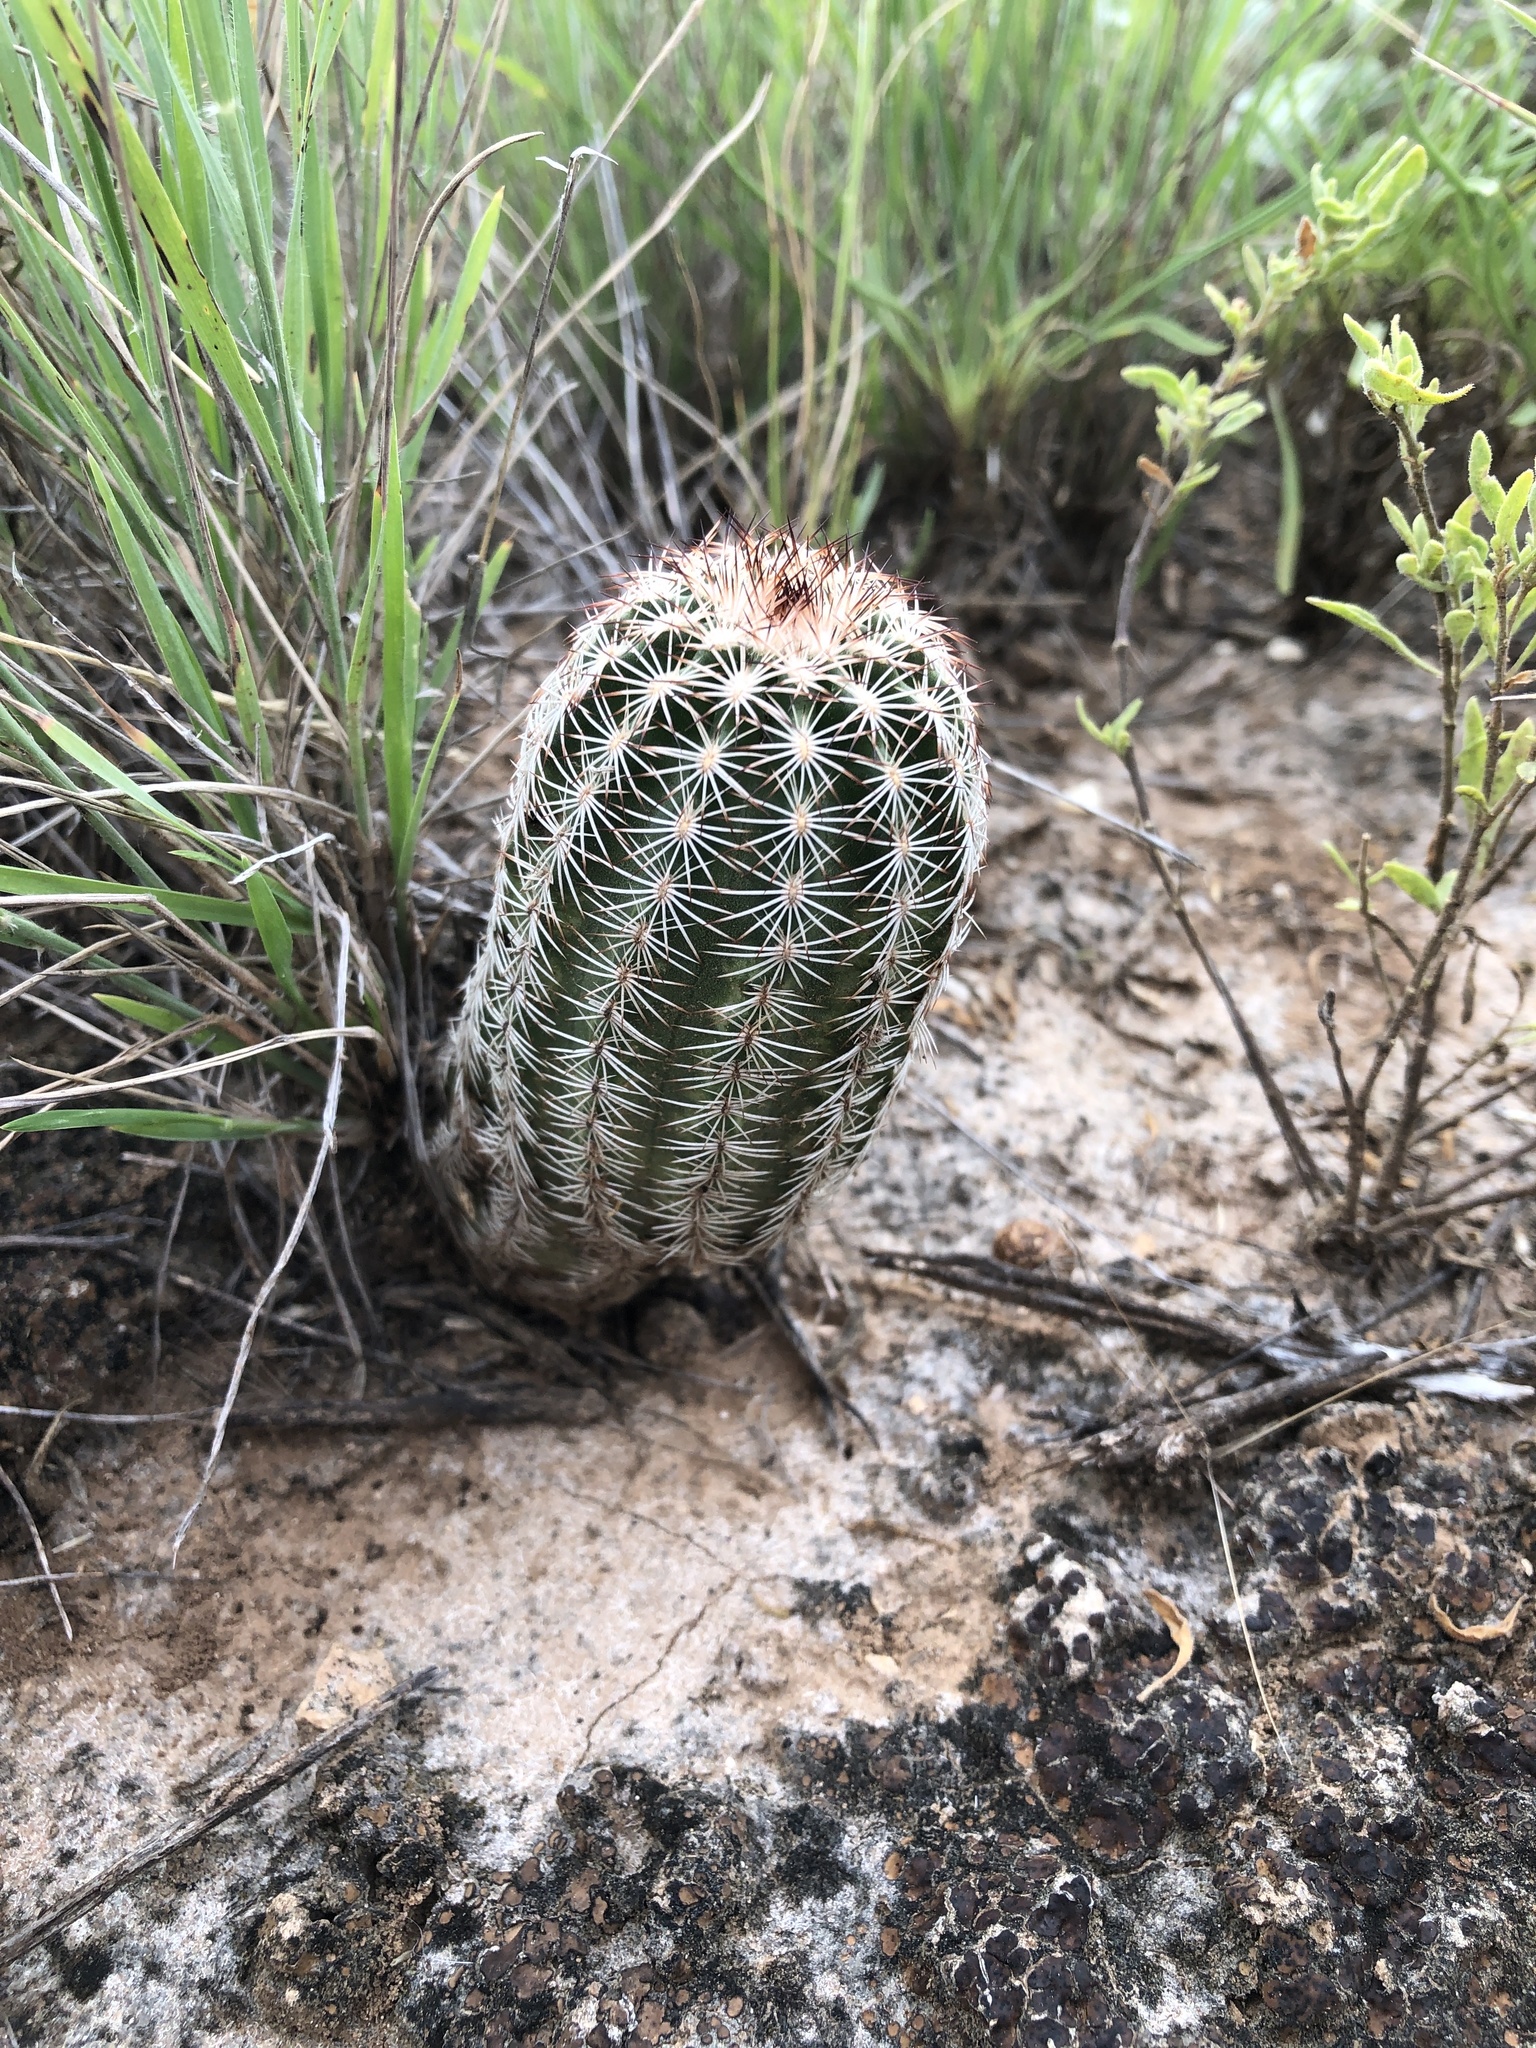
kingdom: Plantae
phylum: Tracheophyta
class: Magnoliopsida
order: Caryophyllales
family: Cactaceae
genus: Echinocereus
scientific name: Echinocereus reichenbachii
